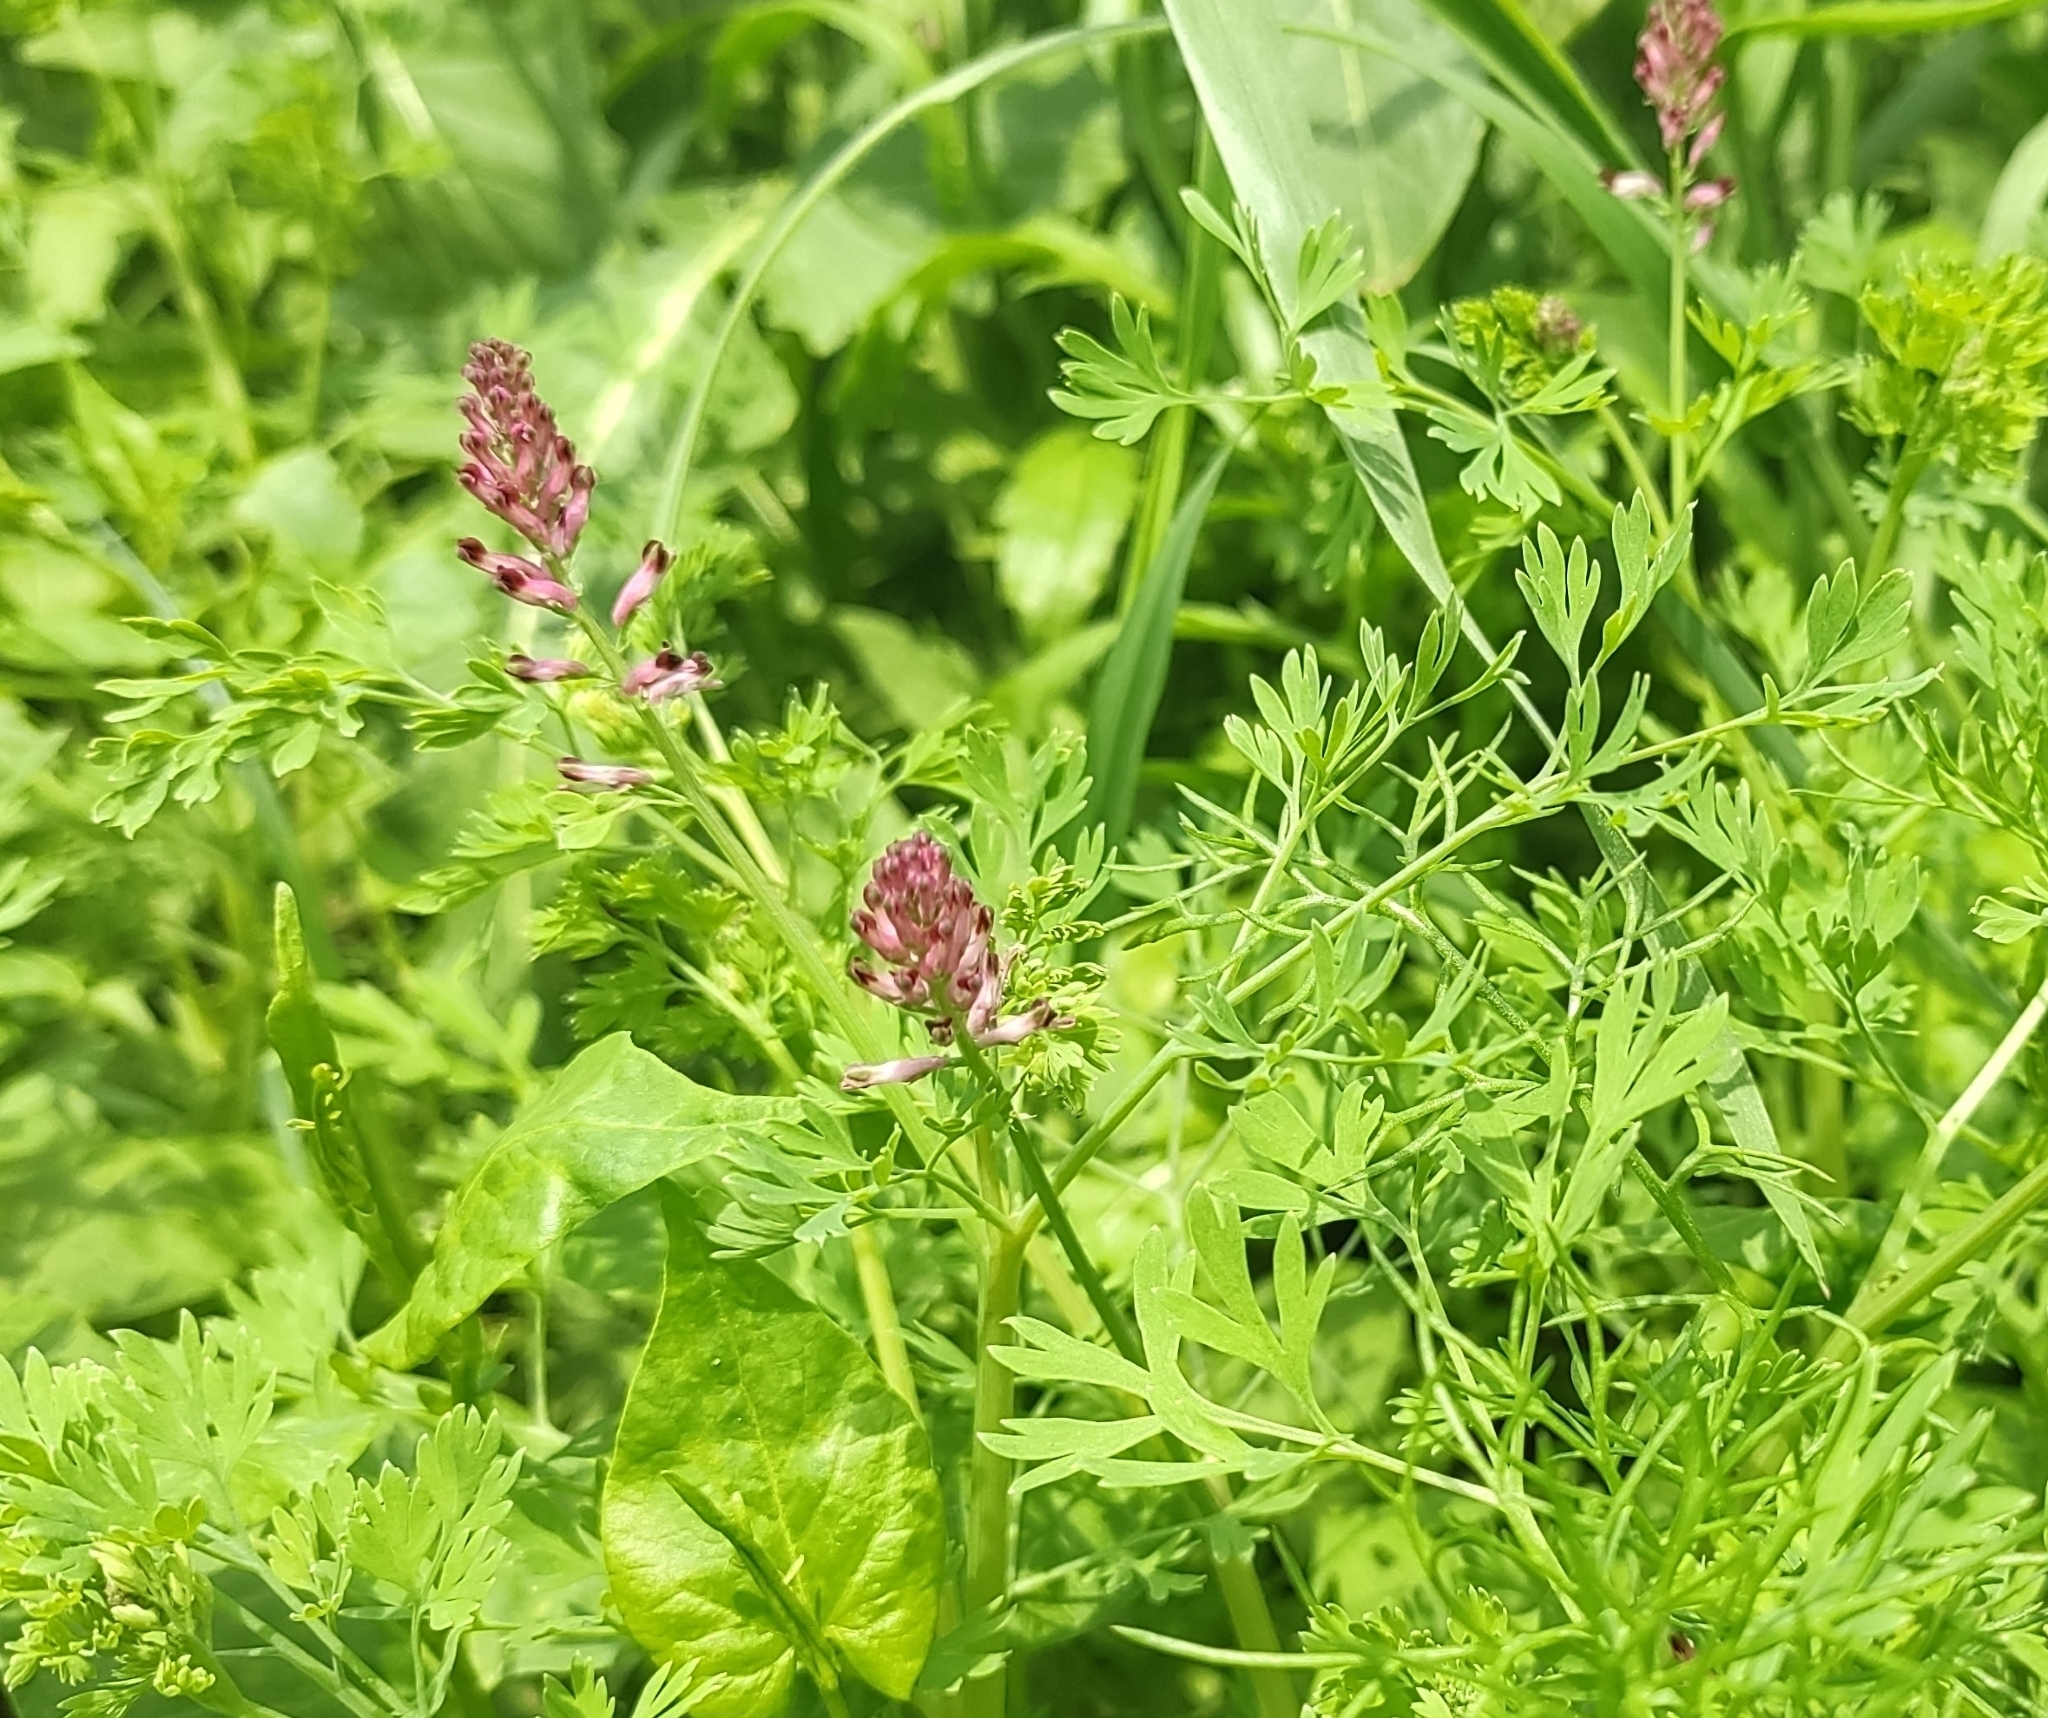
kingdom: Plantae
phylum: Tracheophyta
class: Magnoliopsida
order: Ranunculales
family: Papaveraceae
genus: Fumaria
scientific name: Fumaria schleicheri
